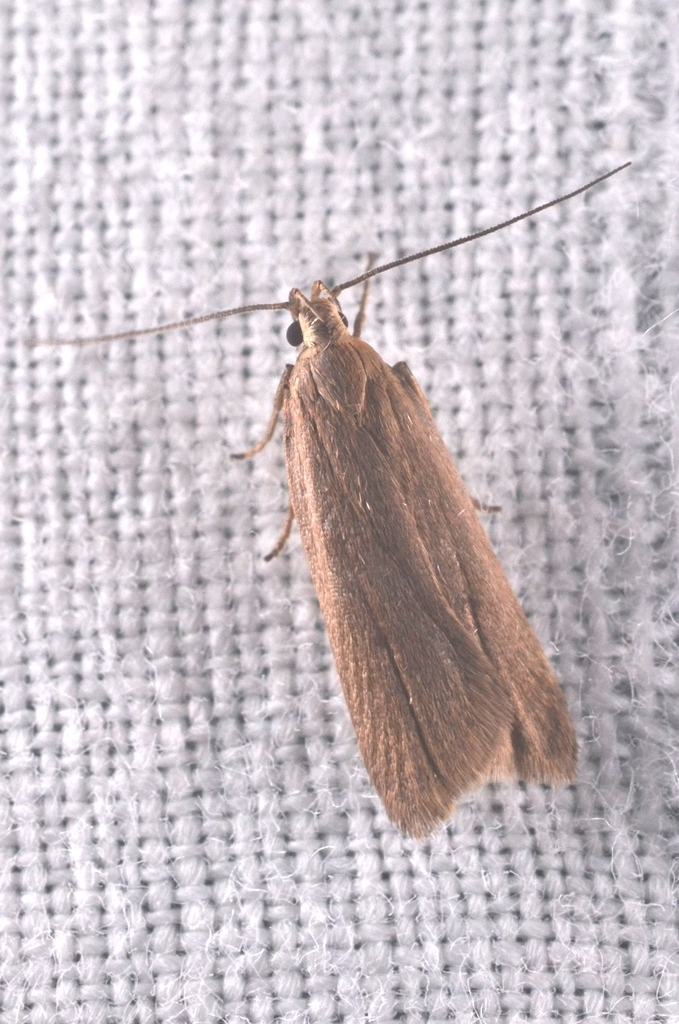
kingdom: Animalia
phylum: Arthropoda
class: Insecta
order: Lepidoptera
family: Gelechiidae
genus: Acompsia
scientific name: Acompsia cinerella
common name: Ash-coloured sober
